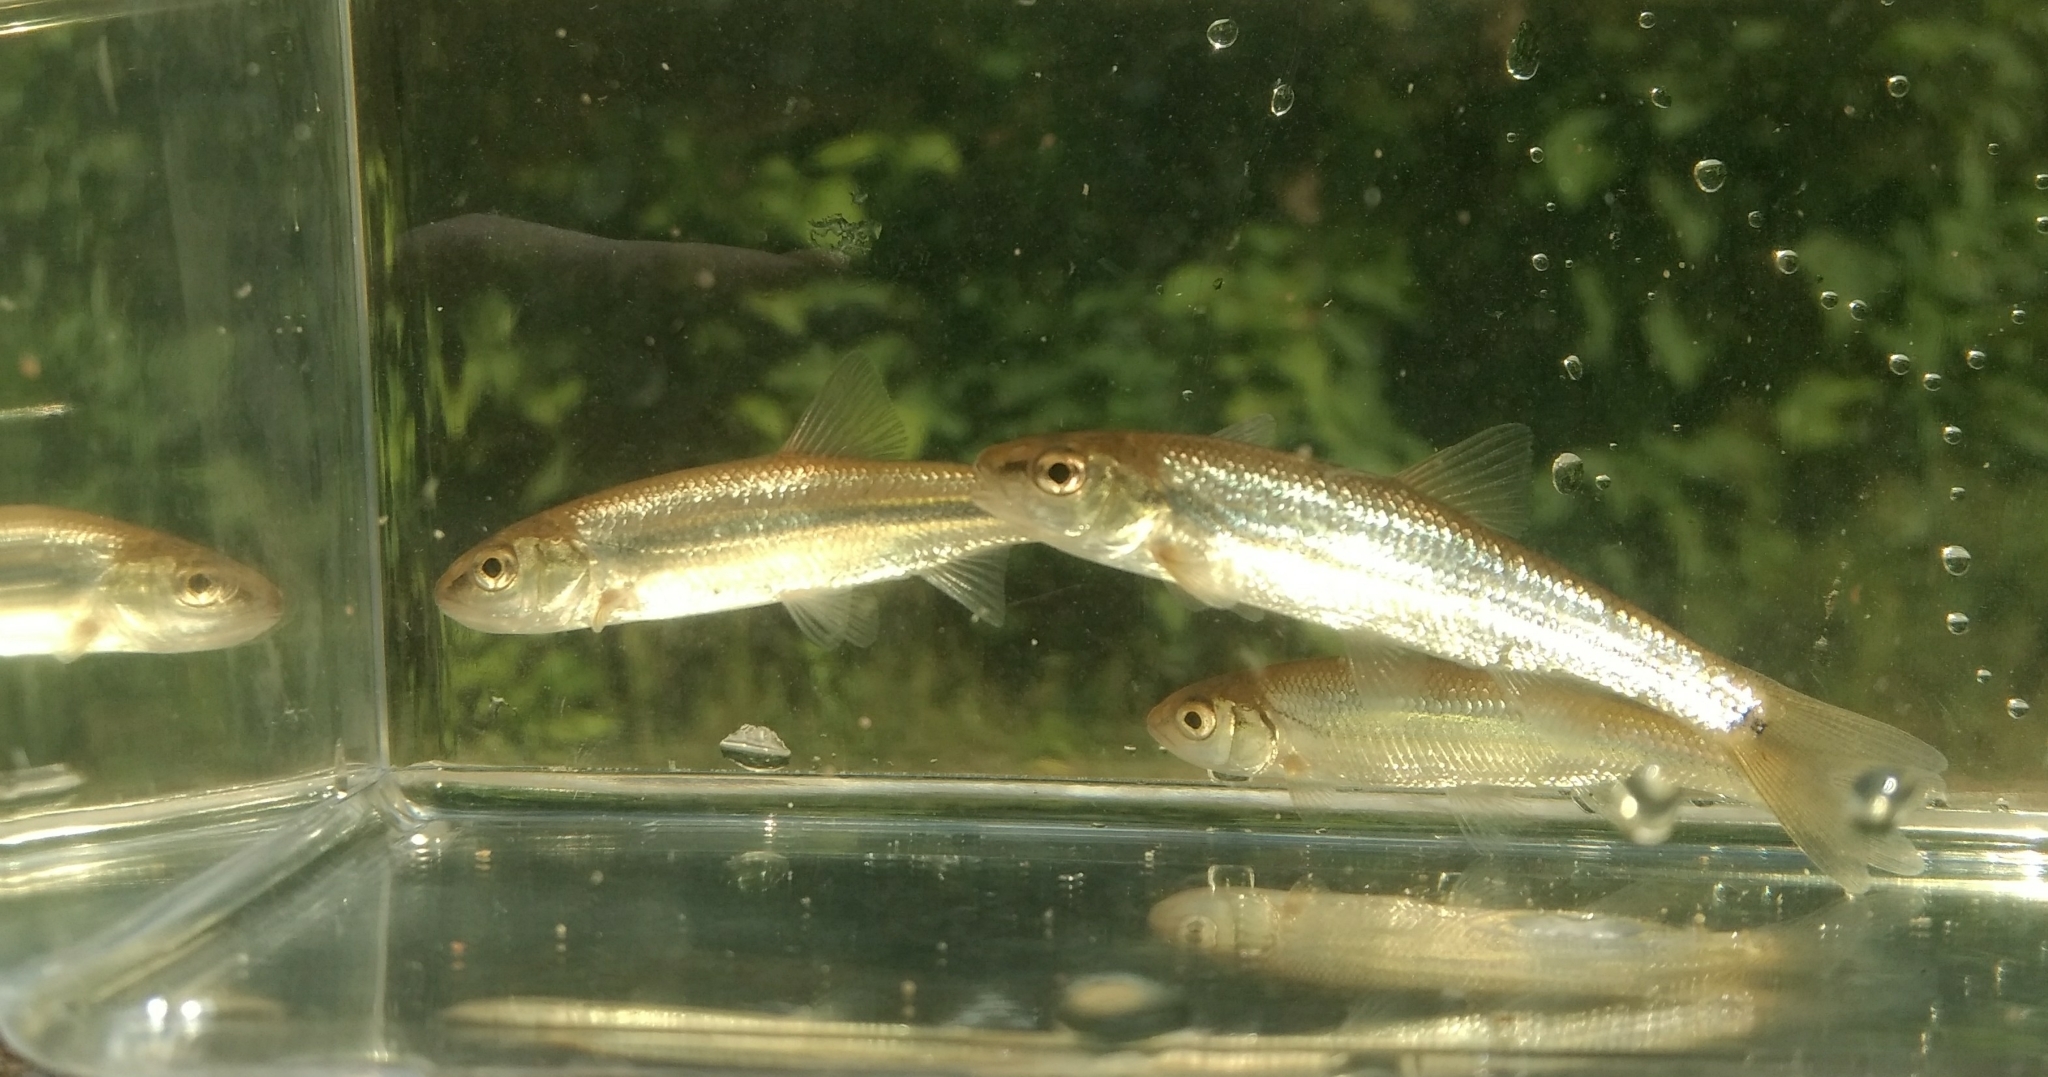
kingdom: Animalia
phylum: Chordata
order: Cypriniformes
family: Cyprinidae
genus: Semotilus
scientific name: Semotilus corporalis
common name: Fallfish
